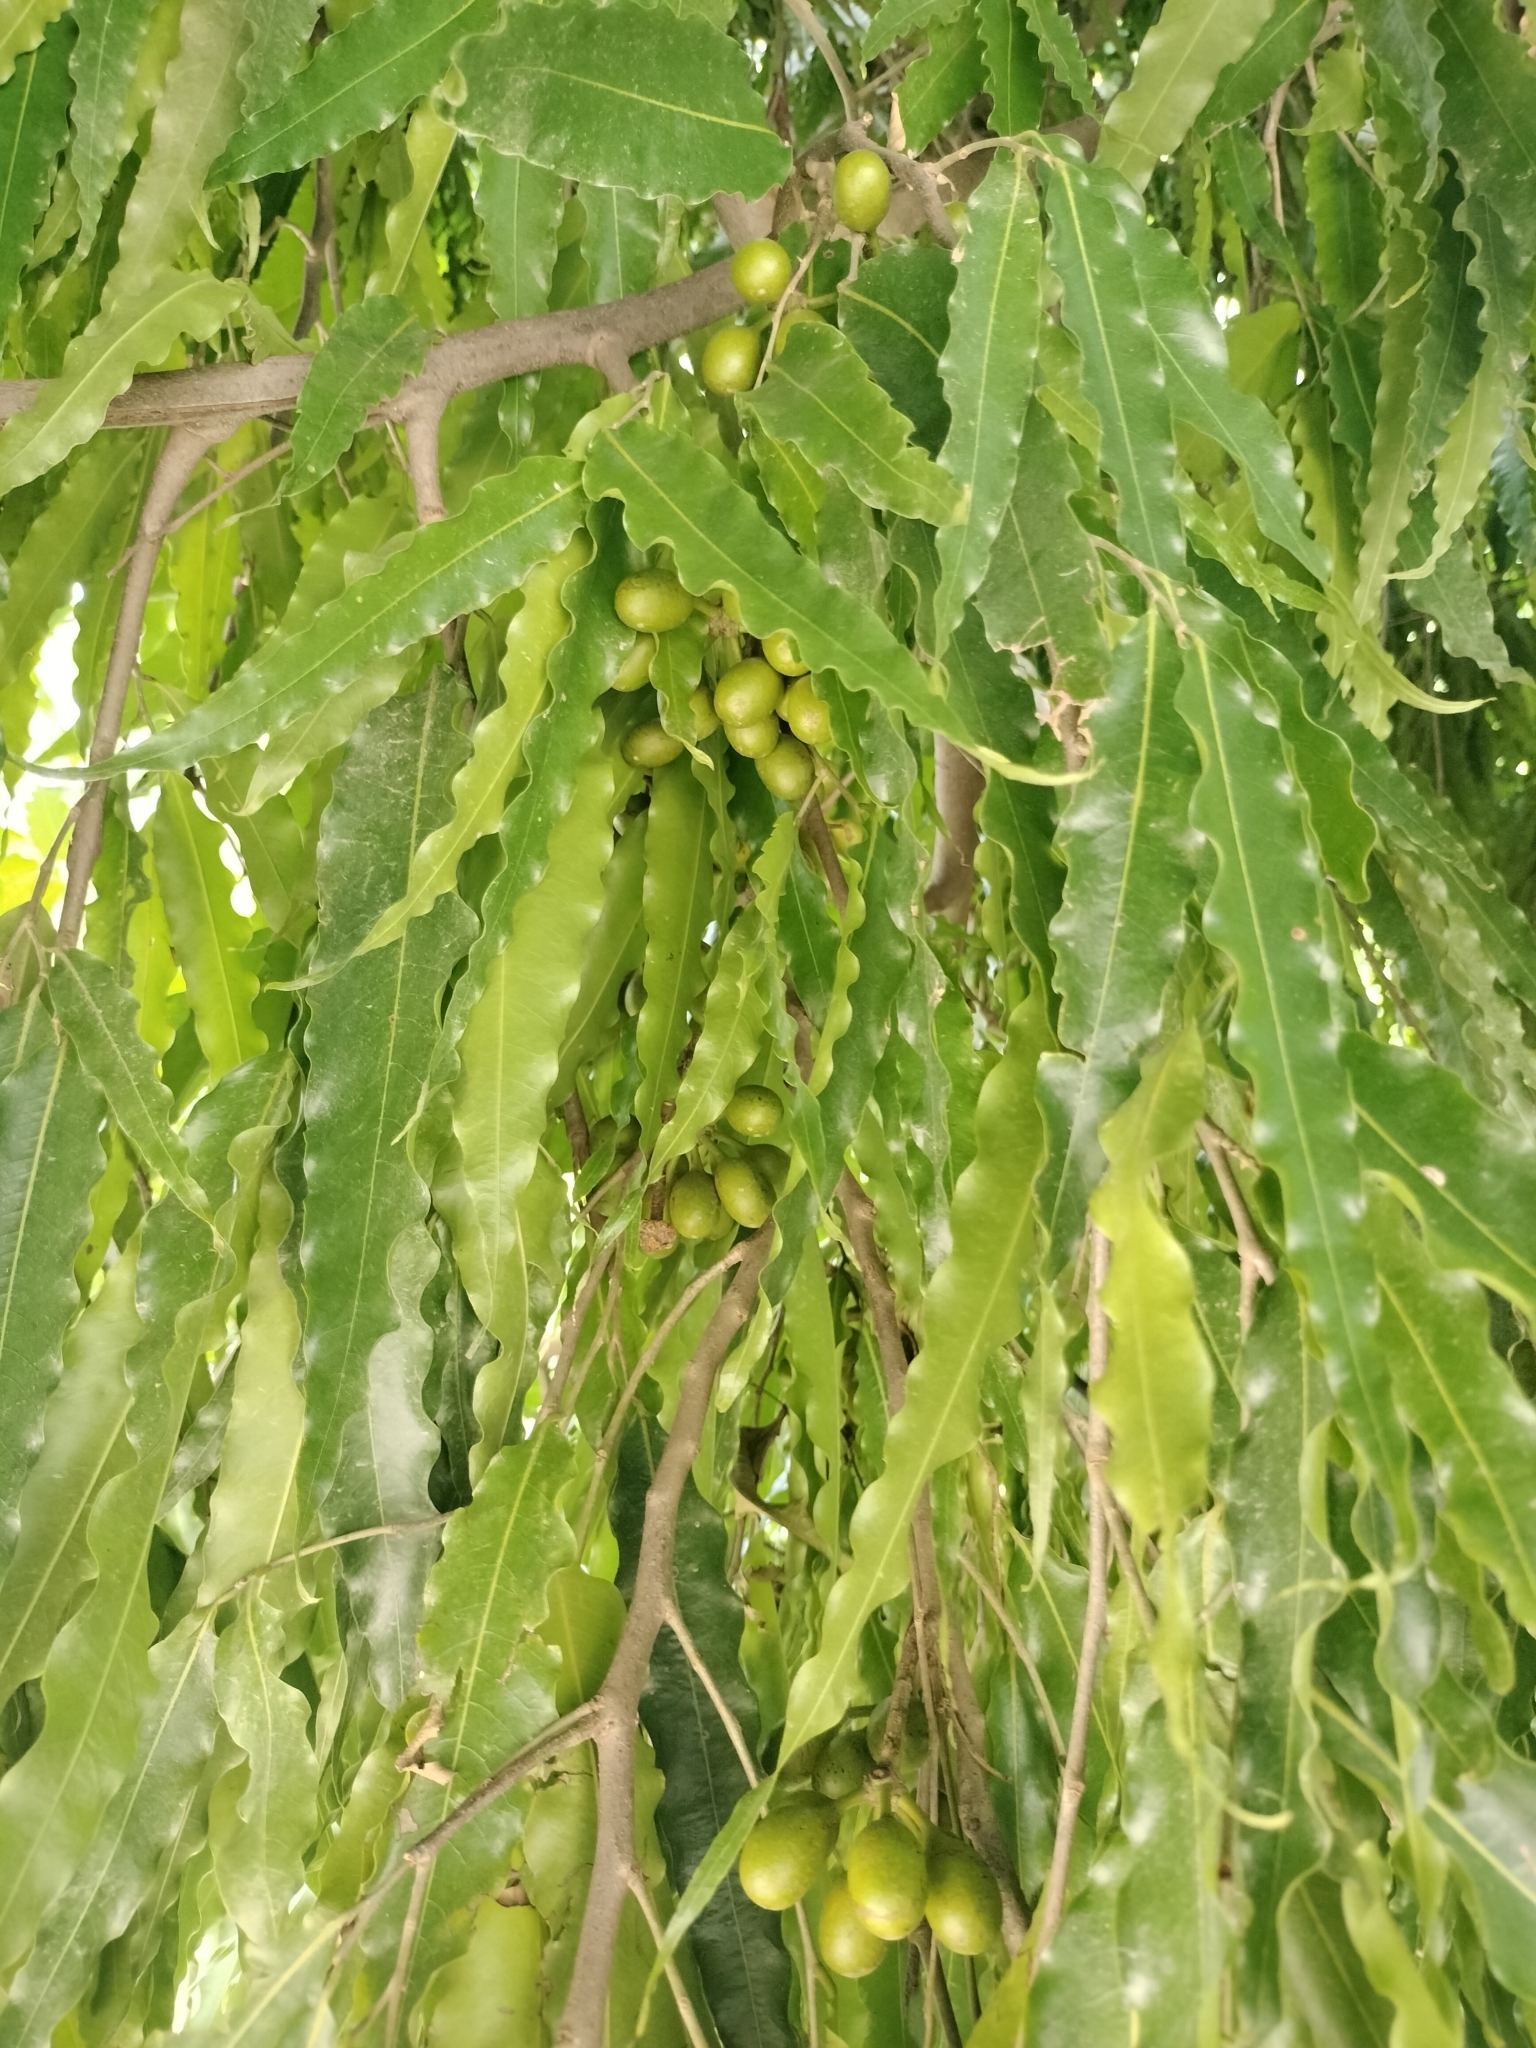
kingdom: Plantae
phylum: Tracheophyta
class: Magnoliopsida
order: Magnoliales
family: Annonaceae
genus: Polyalthia
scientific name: Polyalthia longifolia
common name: Cemetery-tree
